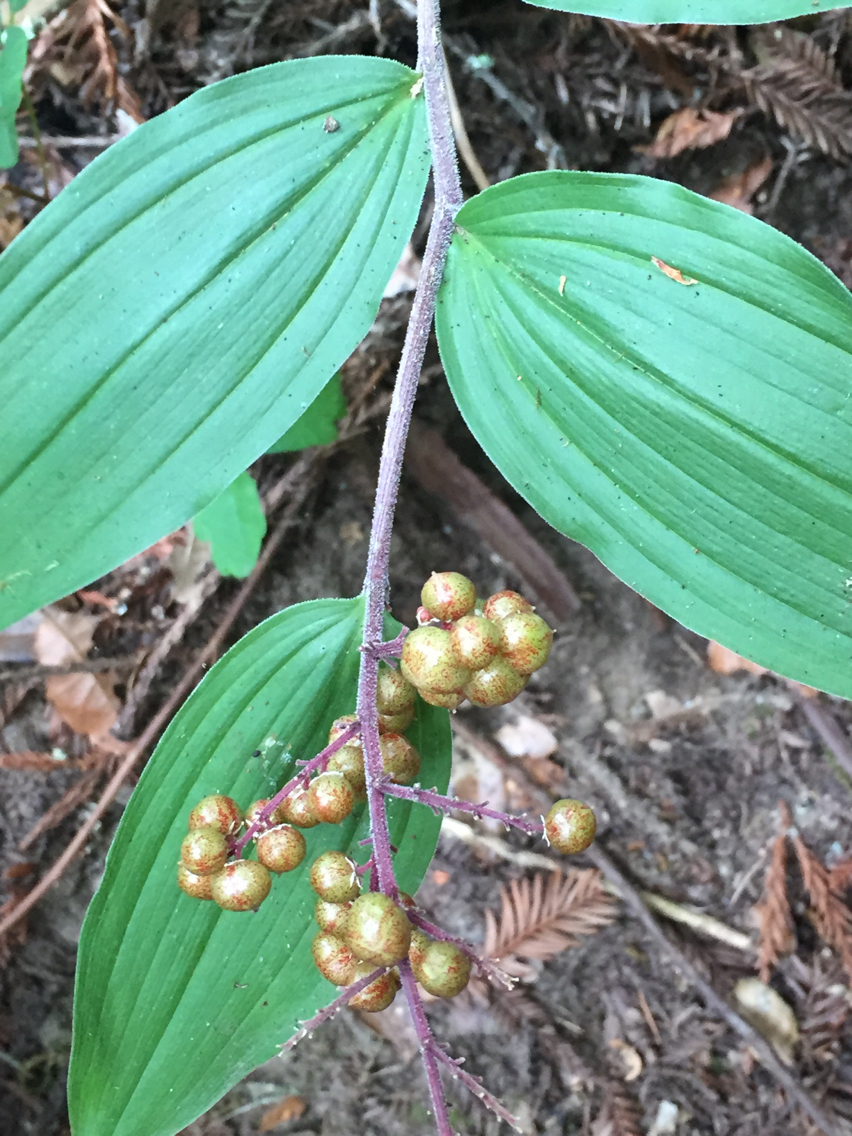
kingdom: Plantae
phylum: Tracheophyta
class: Liliopsida
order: Asparagales
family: Asparagaceae
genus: Maianthemum
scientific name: Maianthemum racemosum
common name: False spikenard
